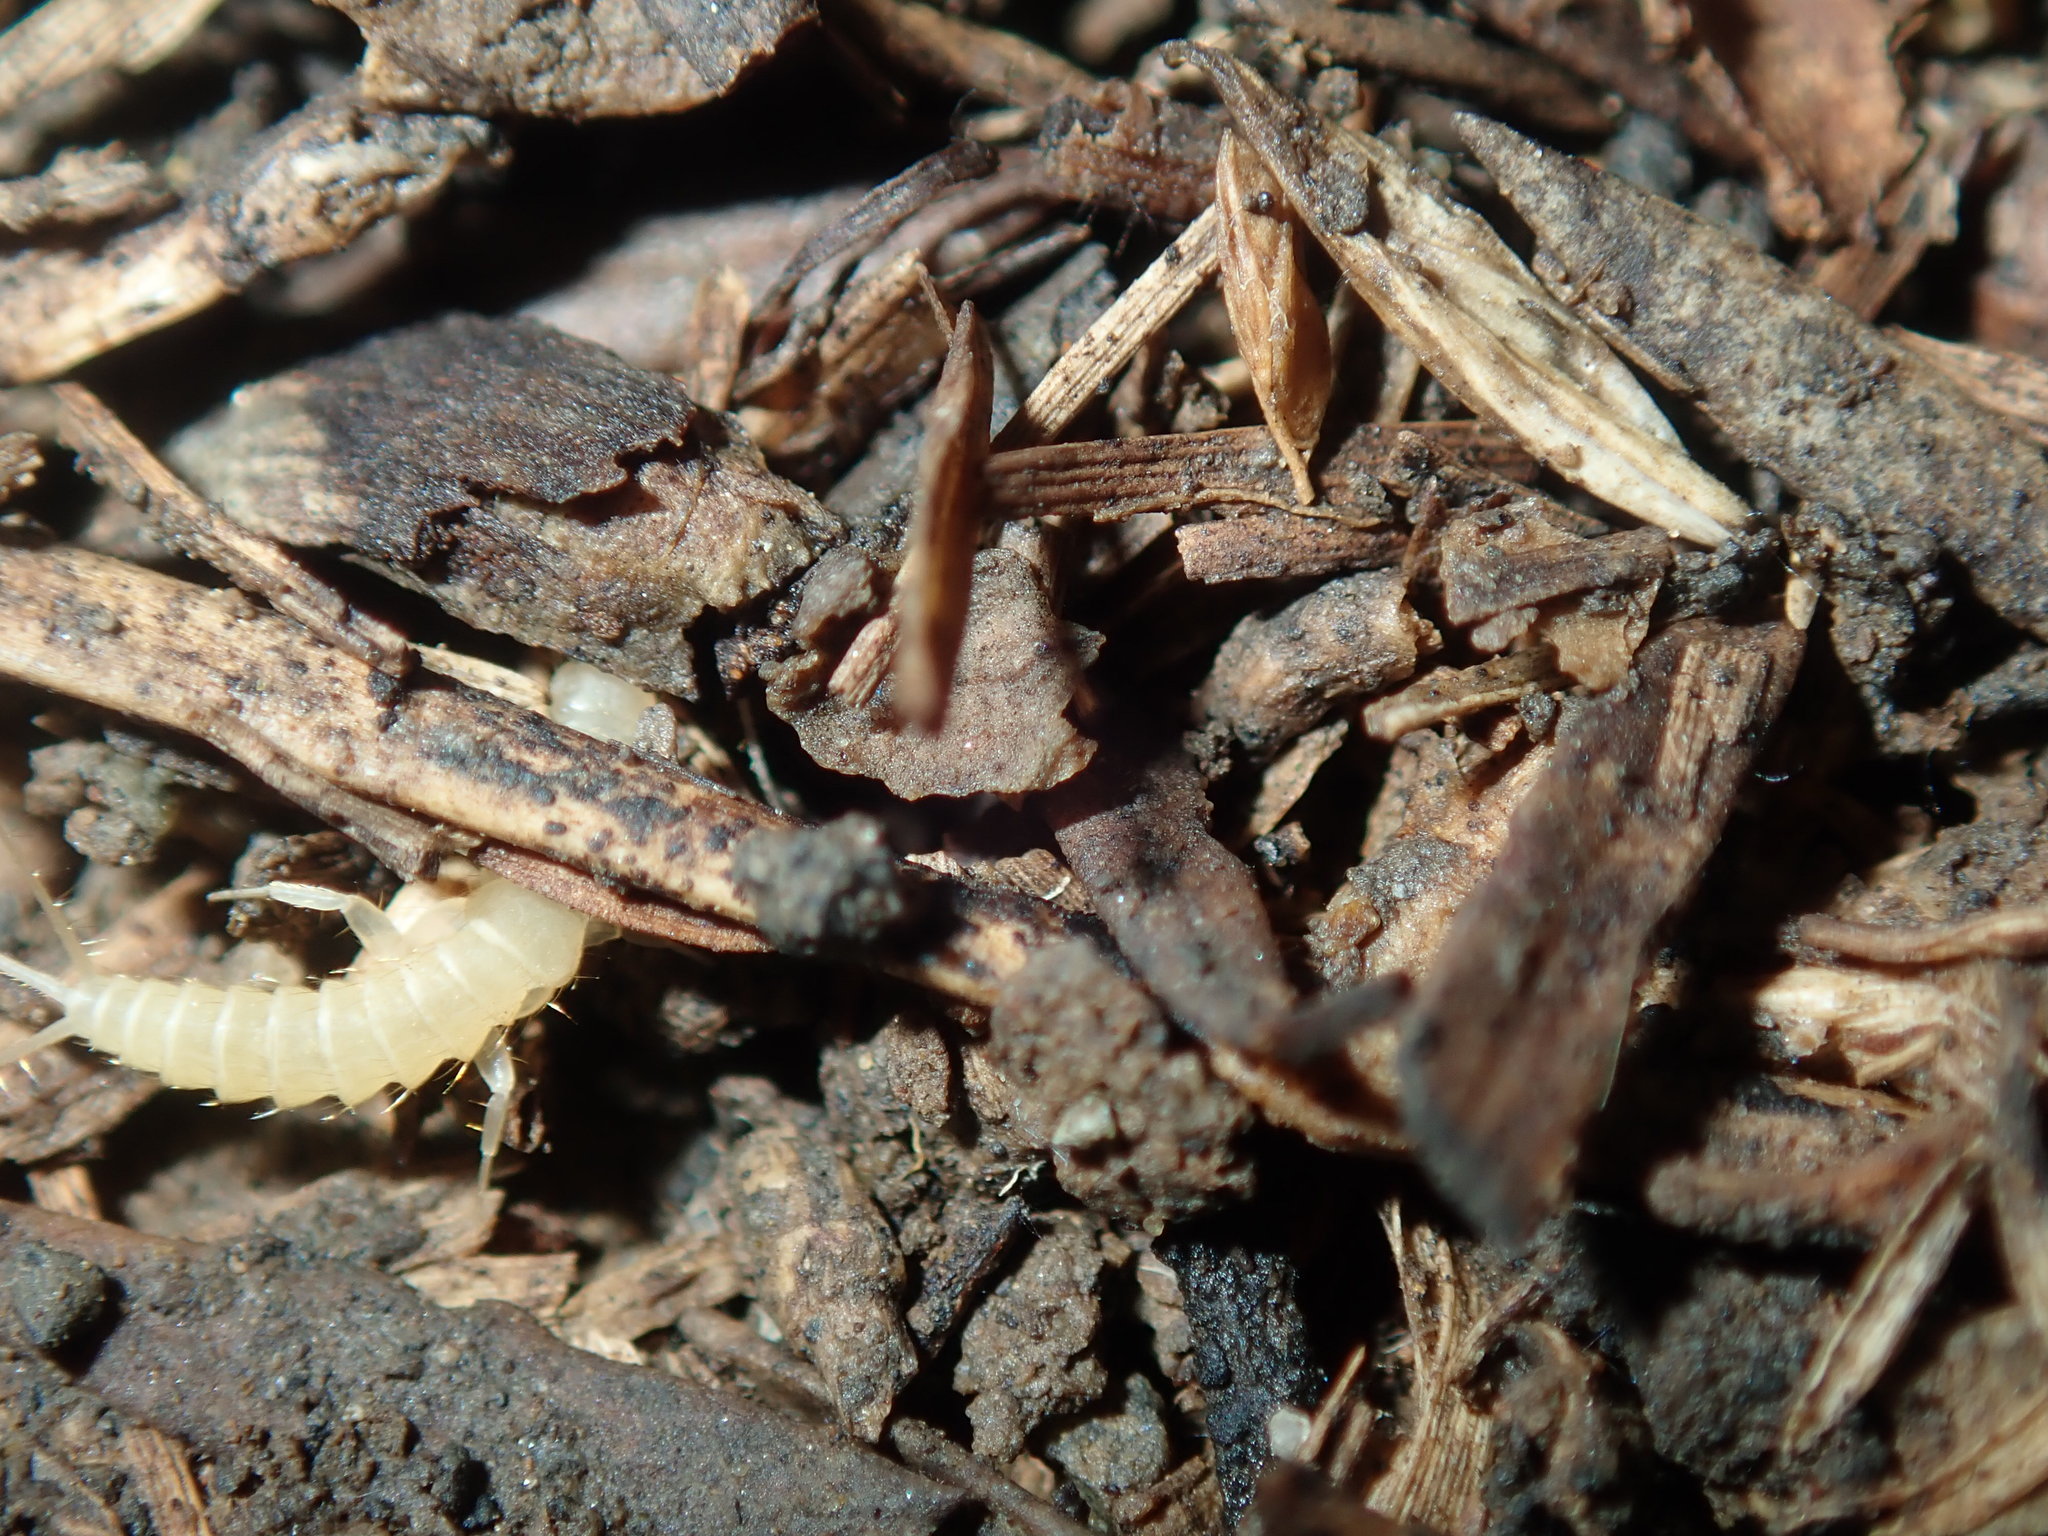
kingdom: Animalia
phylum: Arthropoda
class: Insecta
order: Zygentoma
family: Nicoletiidae
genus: Subtrinemura
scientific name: Subtrinemura epigea
